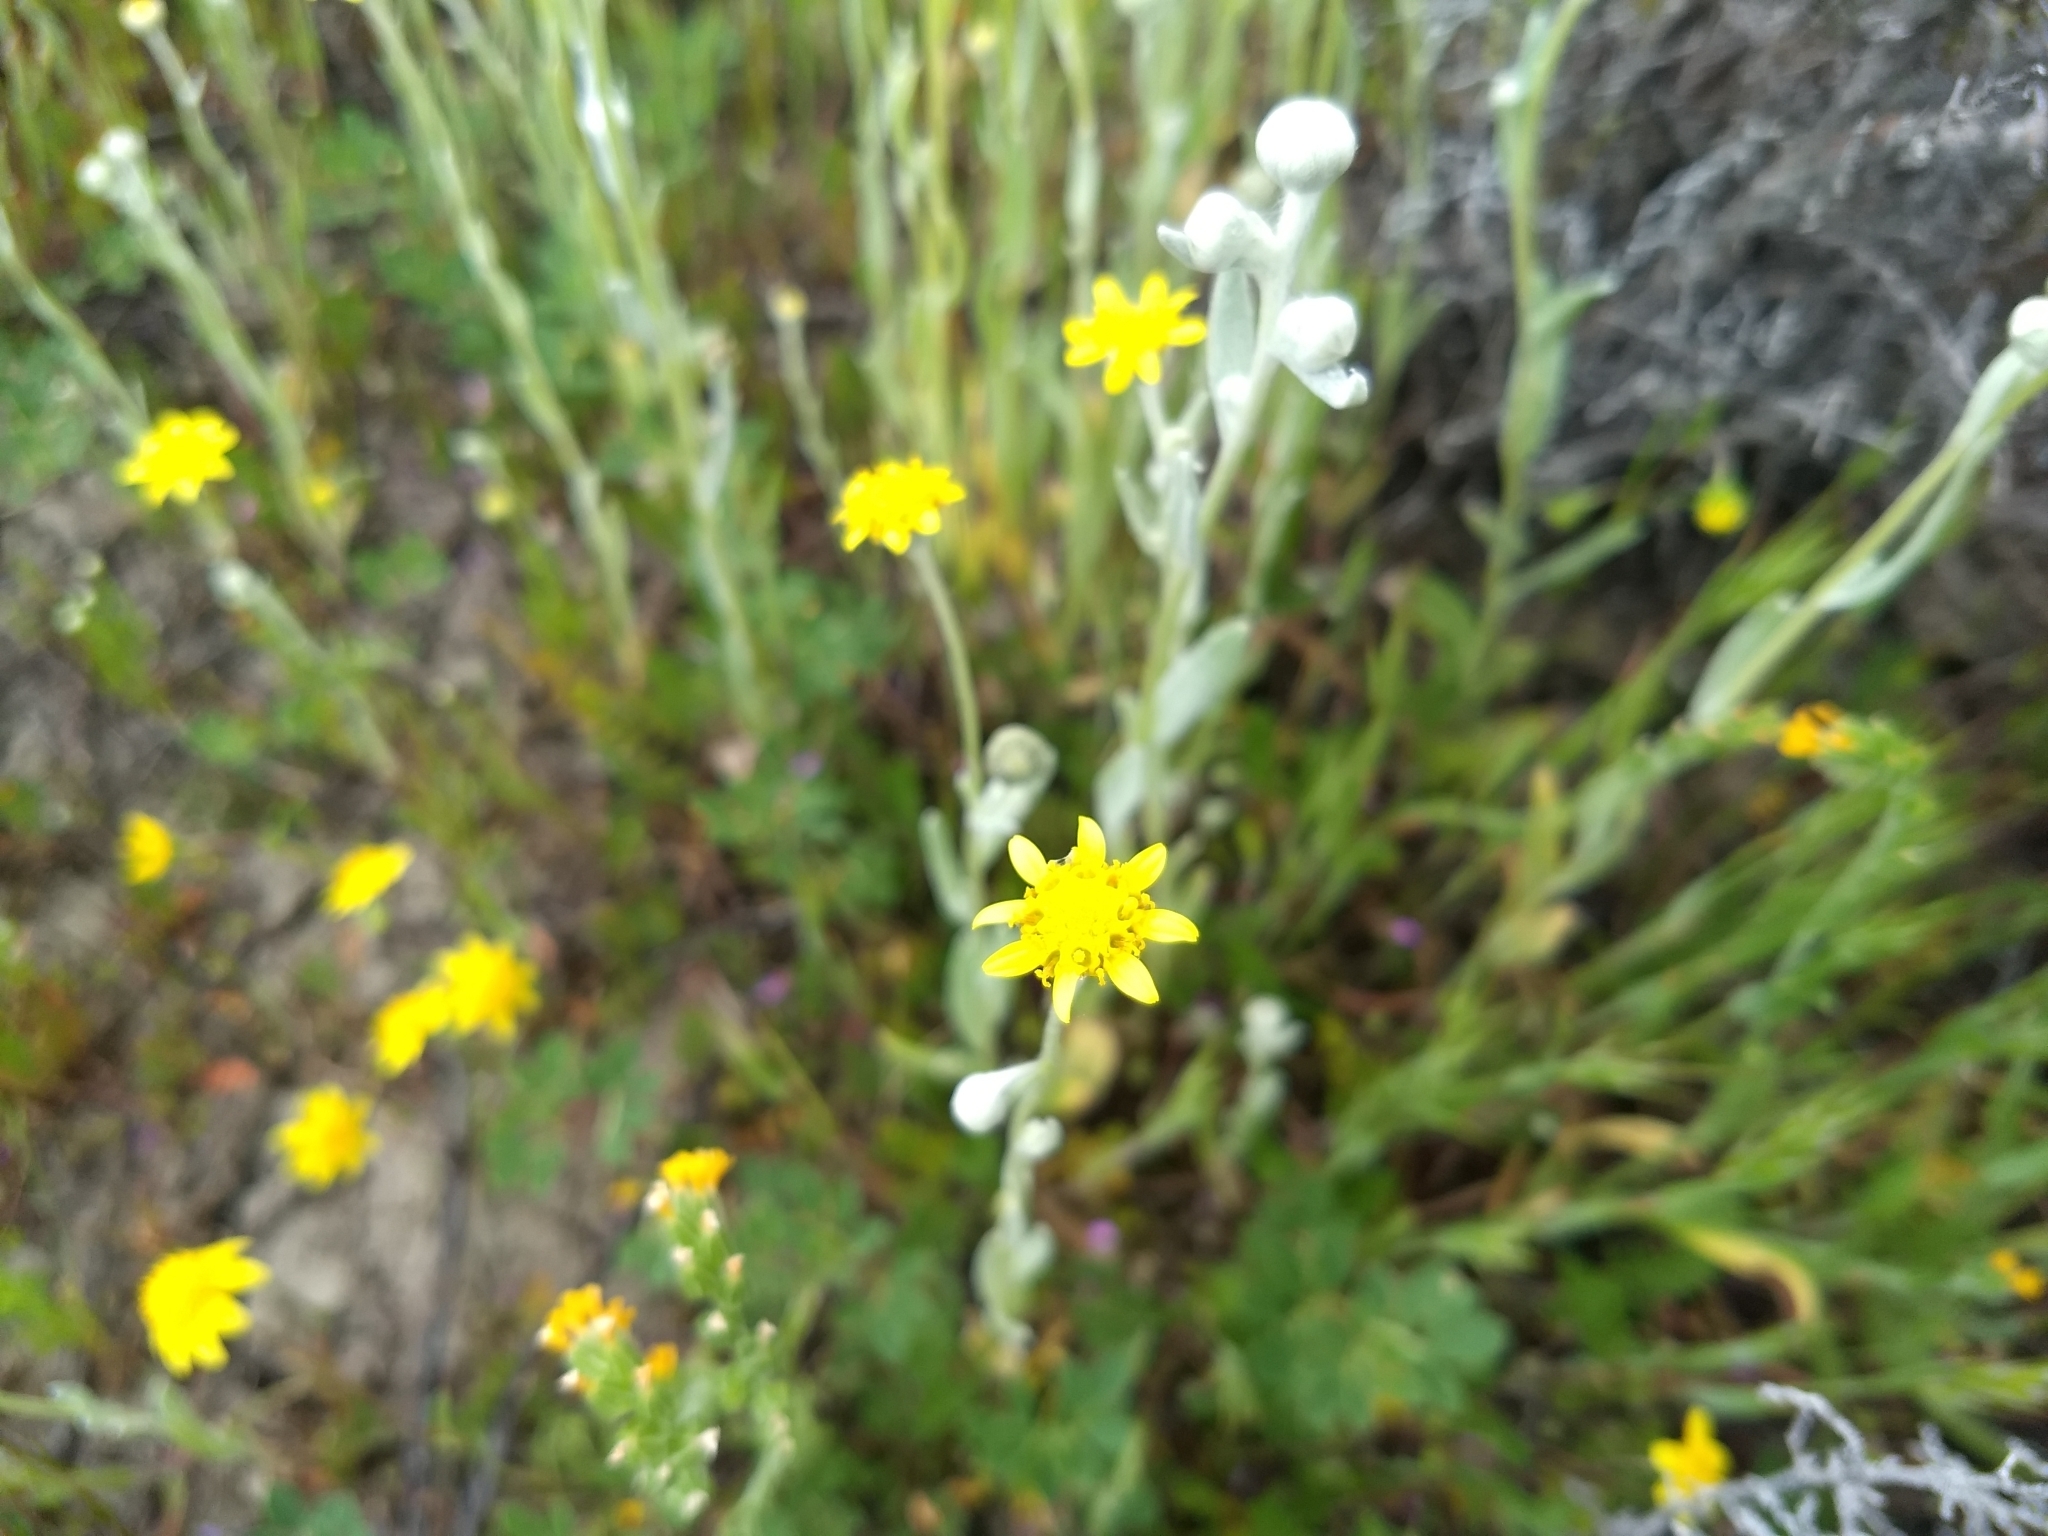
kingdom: Plantae
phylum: Tracheophyta
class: Magnoliopsida
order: Asterales
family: Asteraceae
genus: Monolopia
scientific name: Monolopia stricta
